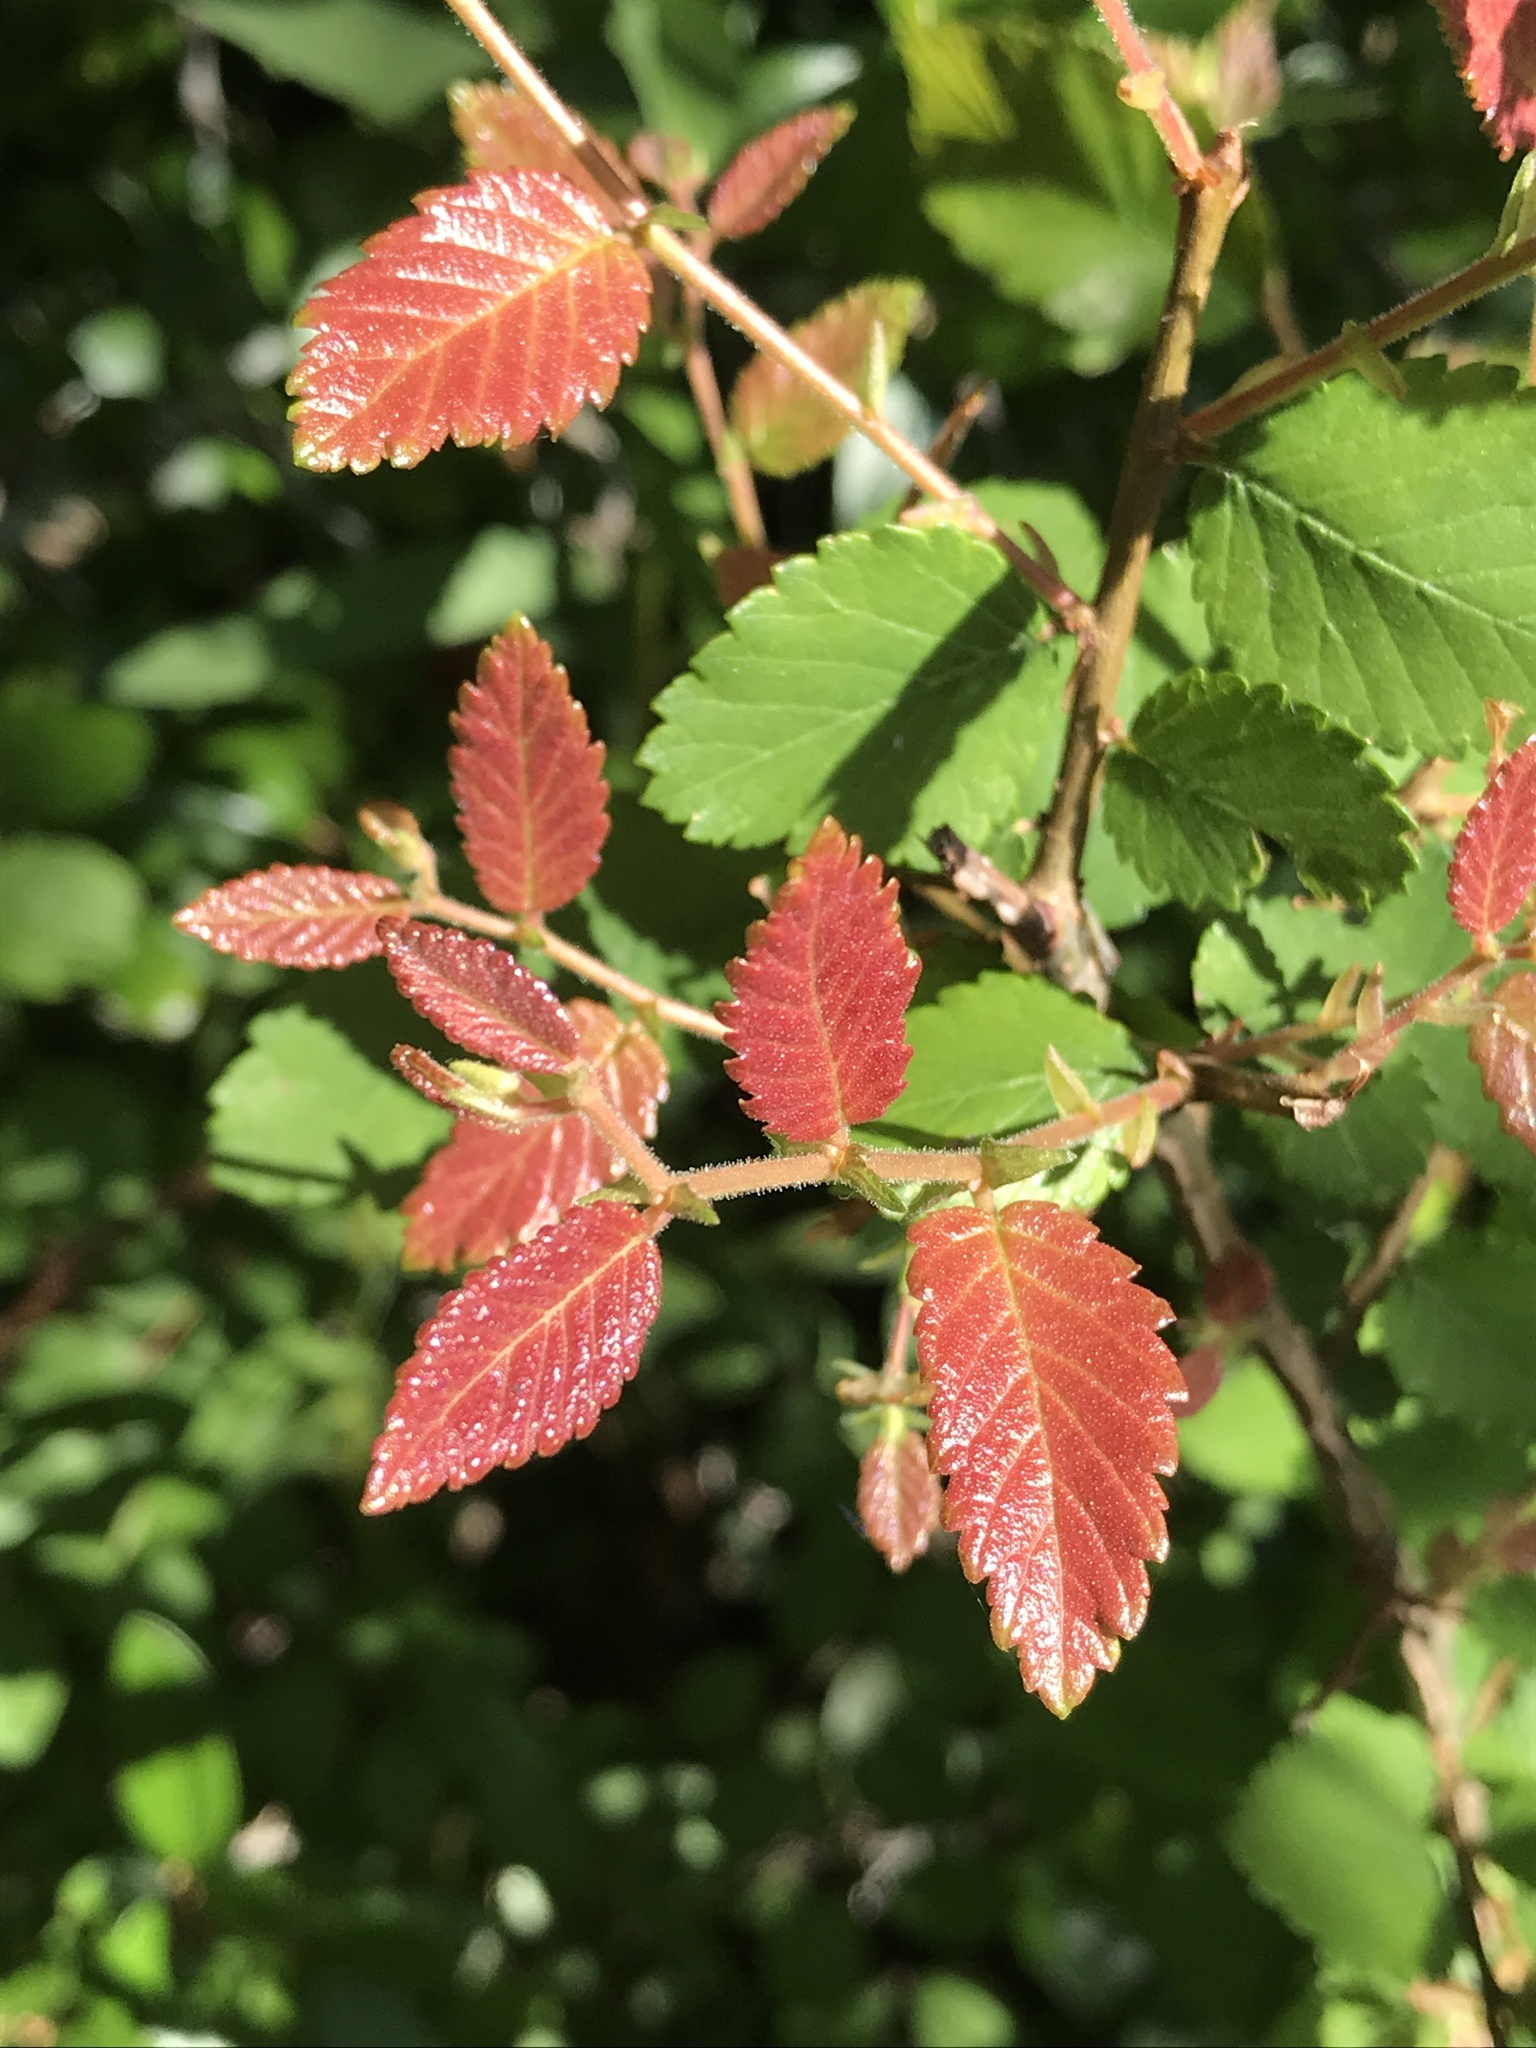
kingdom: Plantae
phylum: Tracheophyta
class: Magnoliopsida
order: Rosales
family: Ulmaceae
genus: Ulmus
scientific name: Ulmus crassifolia
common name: Basket elm
